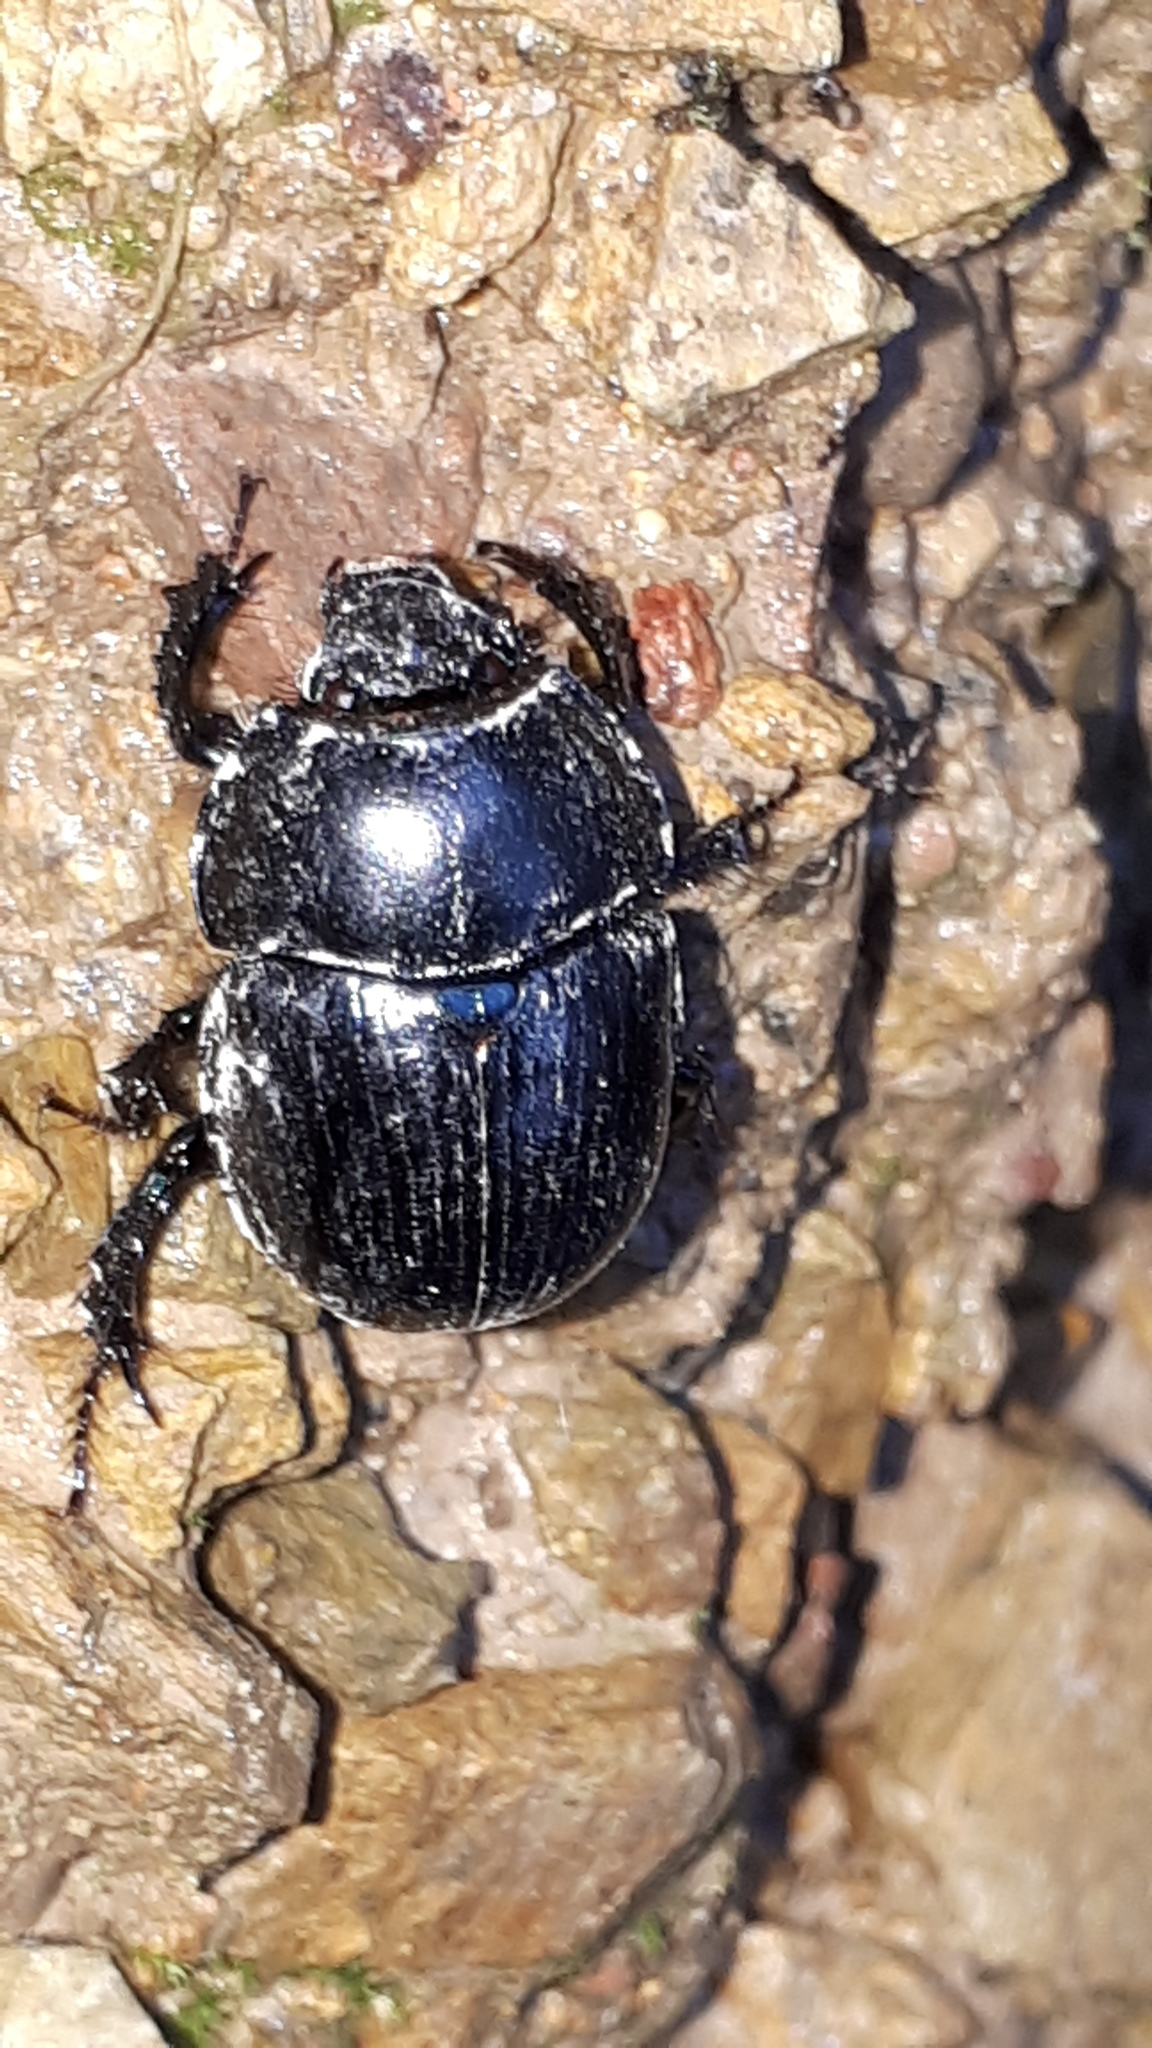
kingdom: Animalia
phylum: Arthropoda
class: Insecta
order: Coleoptera
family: Geotrupidae
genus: Anoplotrupes
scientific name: Anoplotrupes stercorosus
